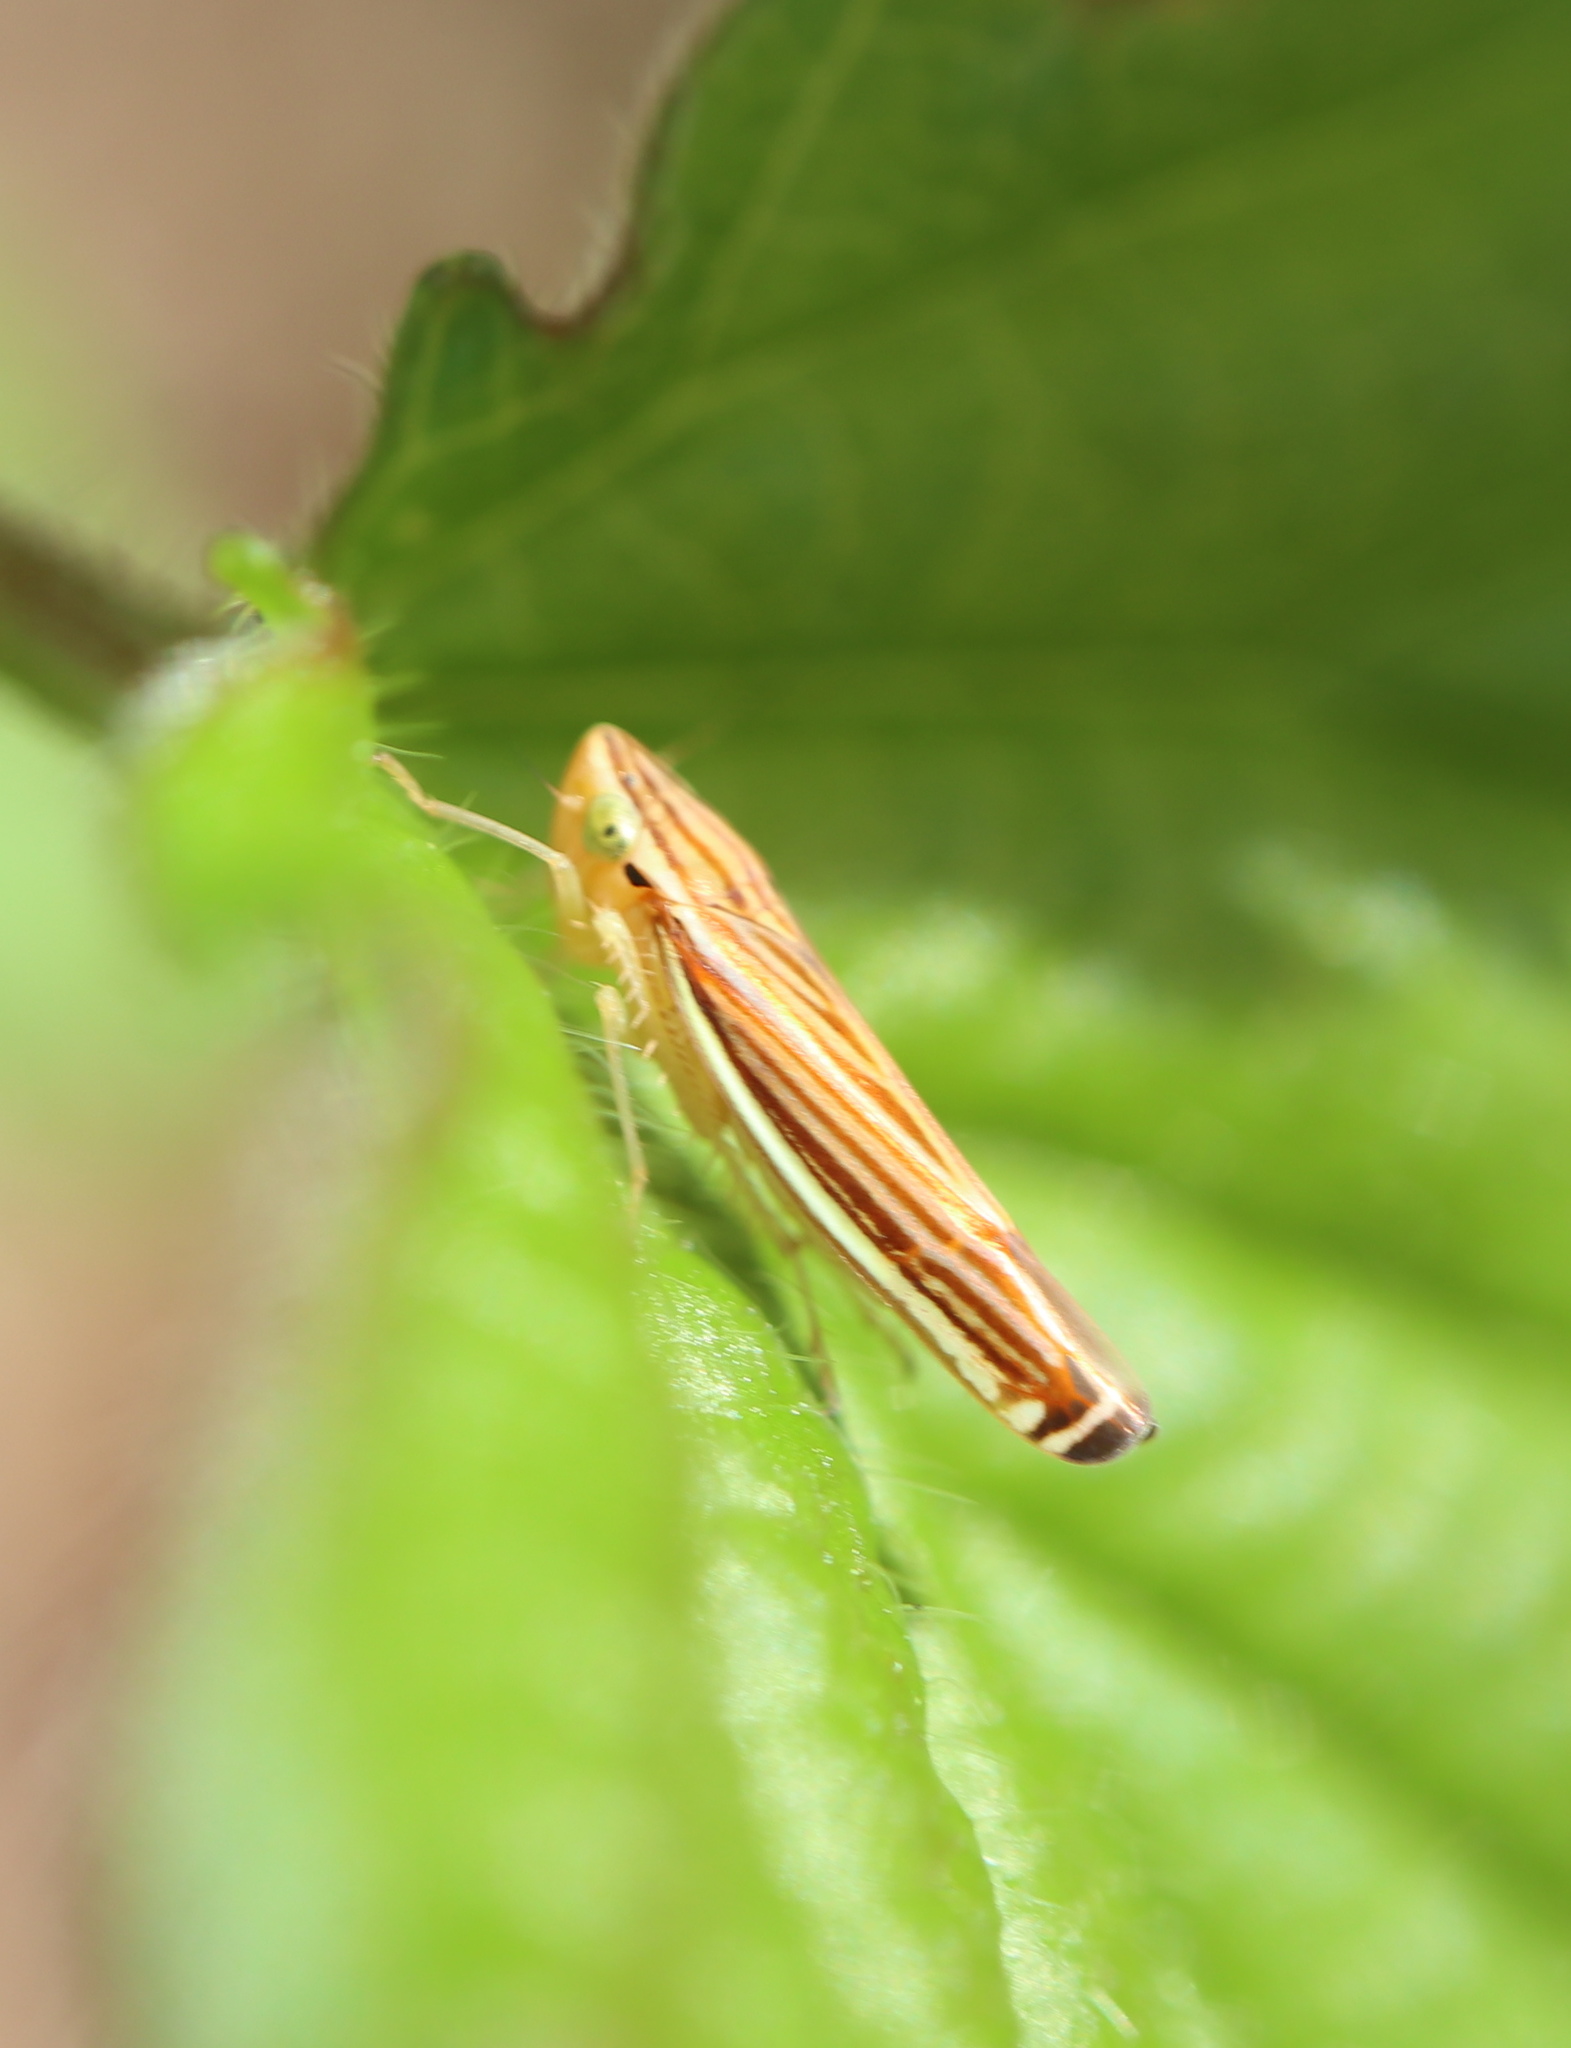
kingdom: Animalia
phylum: Arthropoda
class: Insecta
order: Hemiptera
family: Cicadellidae
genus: Sibovia
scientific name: Sibovia occatoria
